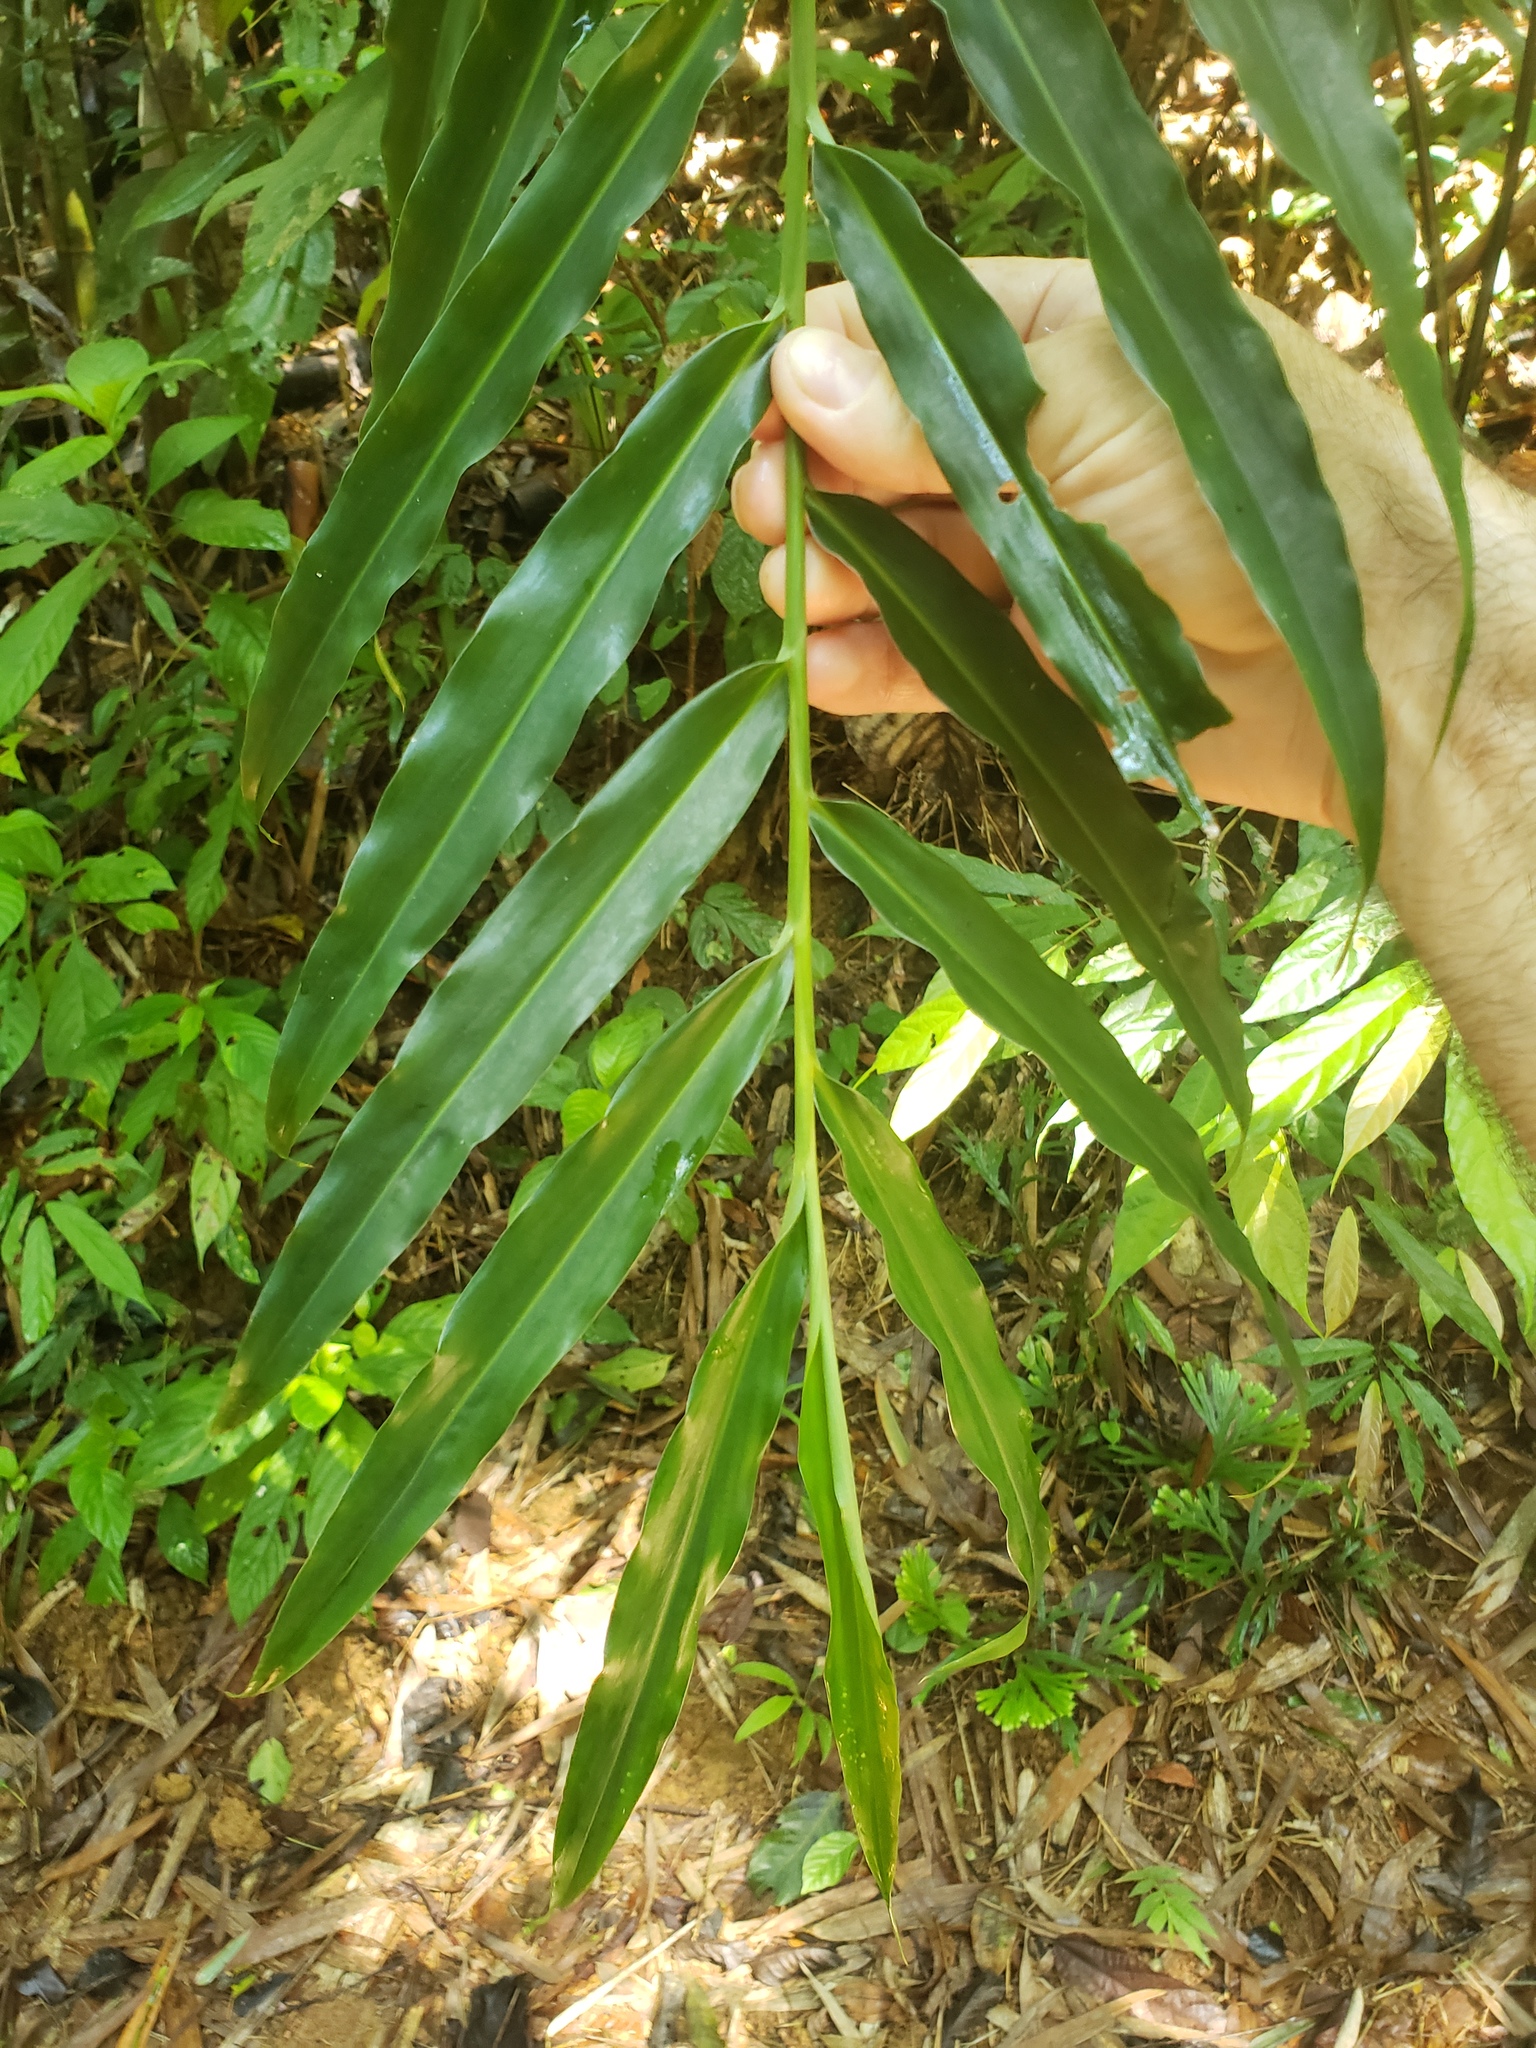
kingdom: Plantae
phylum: Tracheophyta
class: Liliopsida
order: Zingiberales
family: Zingiberaceae
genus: Zingiber
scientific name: Zingiber spectabile
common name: Beehive ginger
